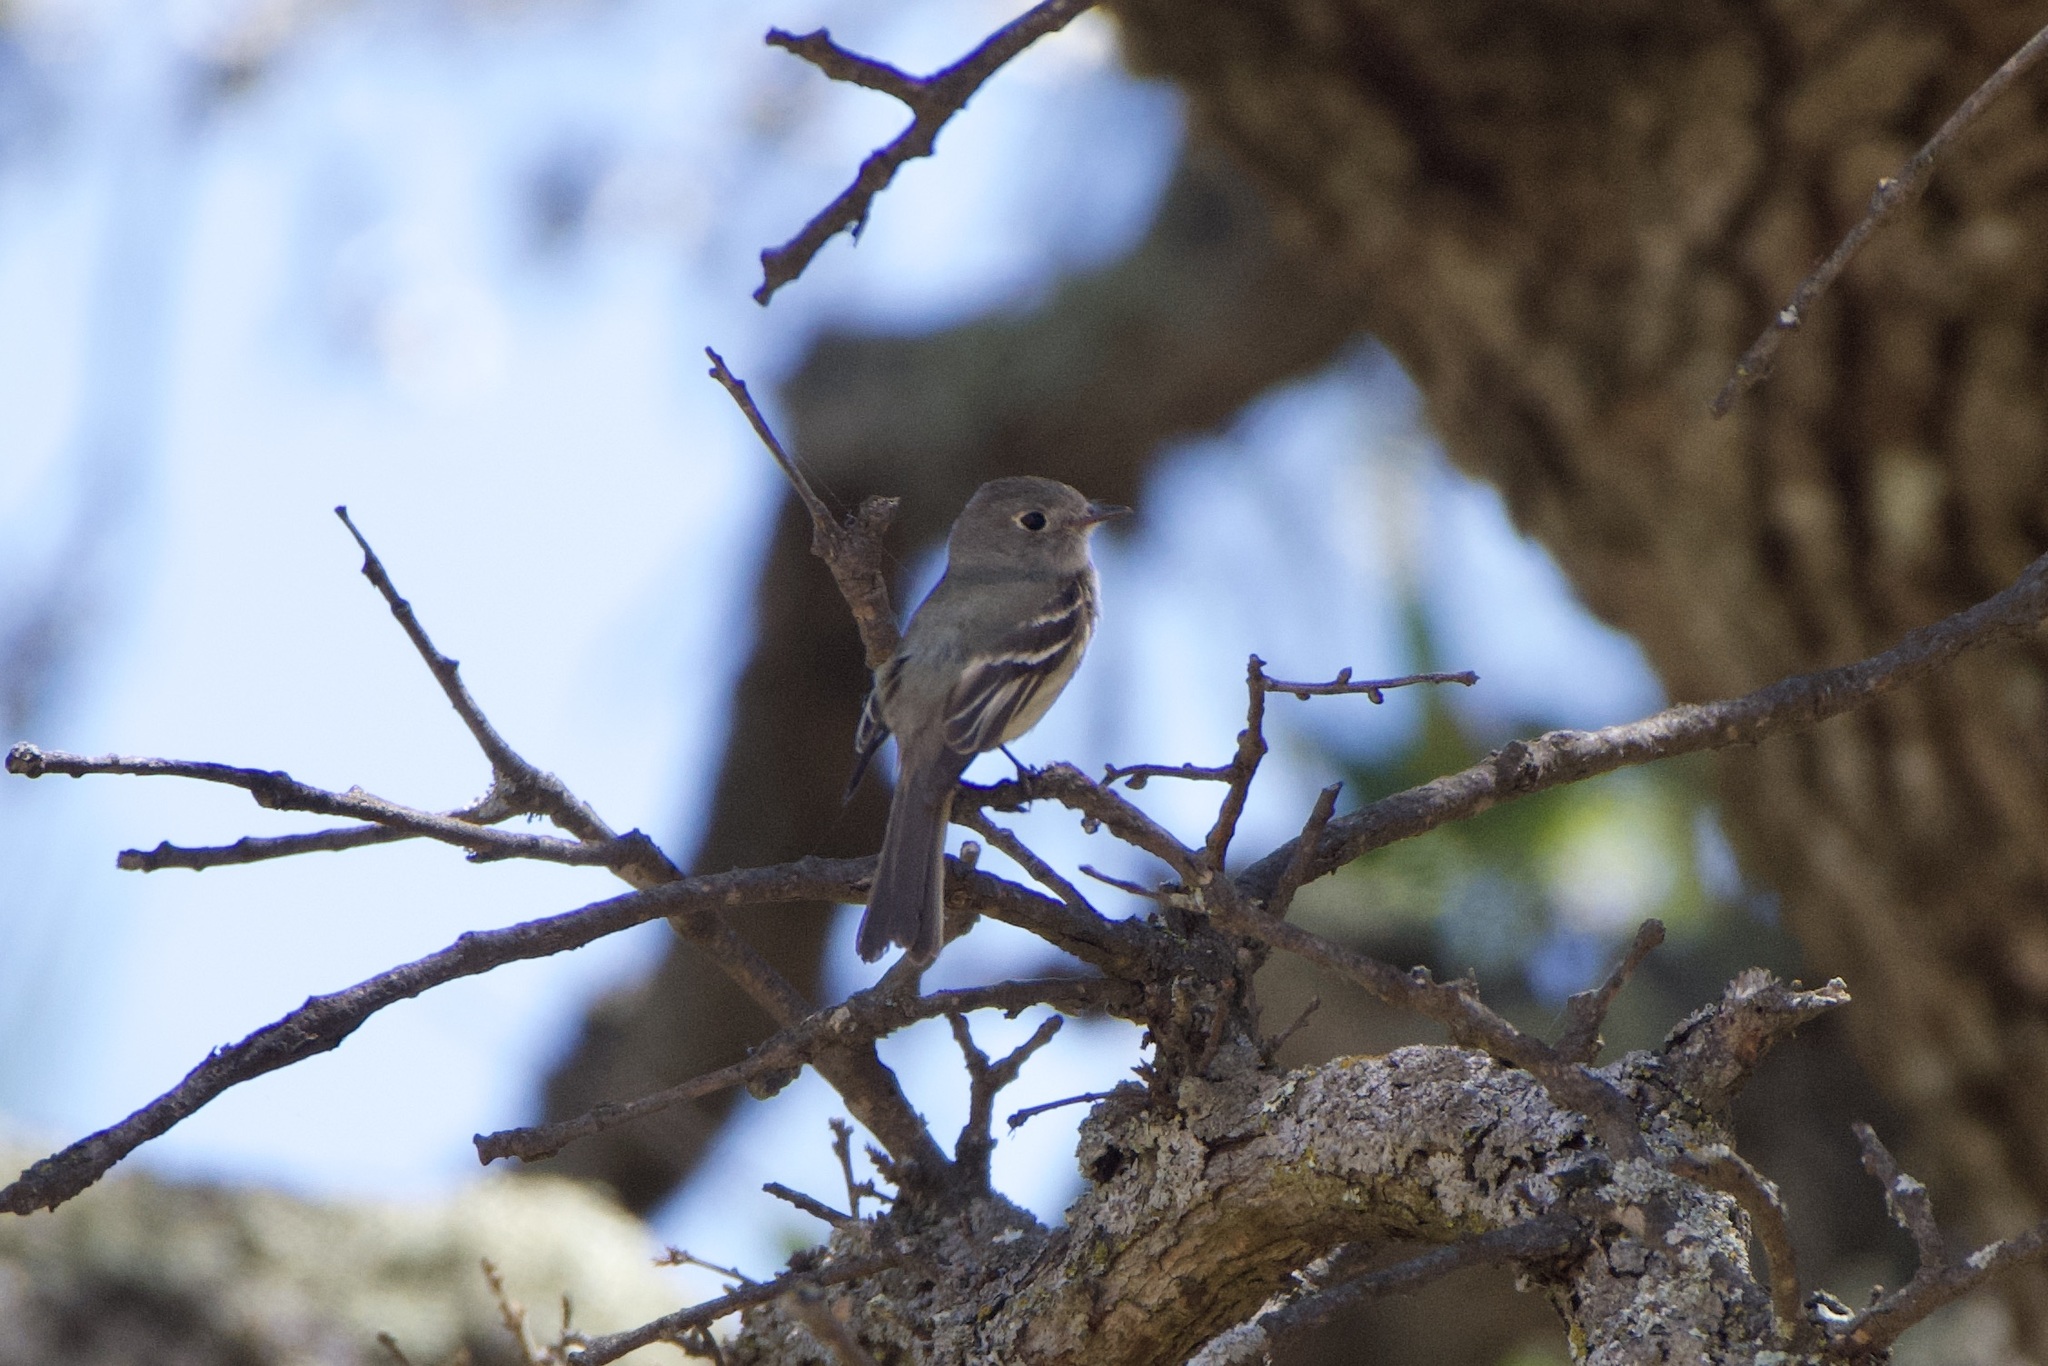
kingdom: Animalia
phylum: Chordata
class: Aves
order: Passeriformes
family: Tyrannidae
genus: Empidonax
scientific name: Empidonax hammondii
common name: Hammond's flycatcher
